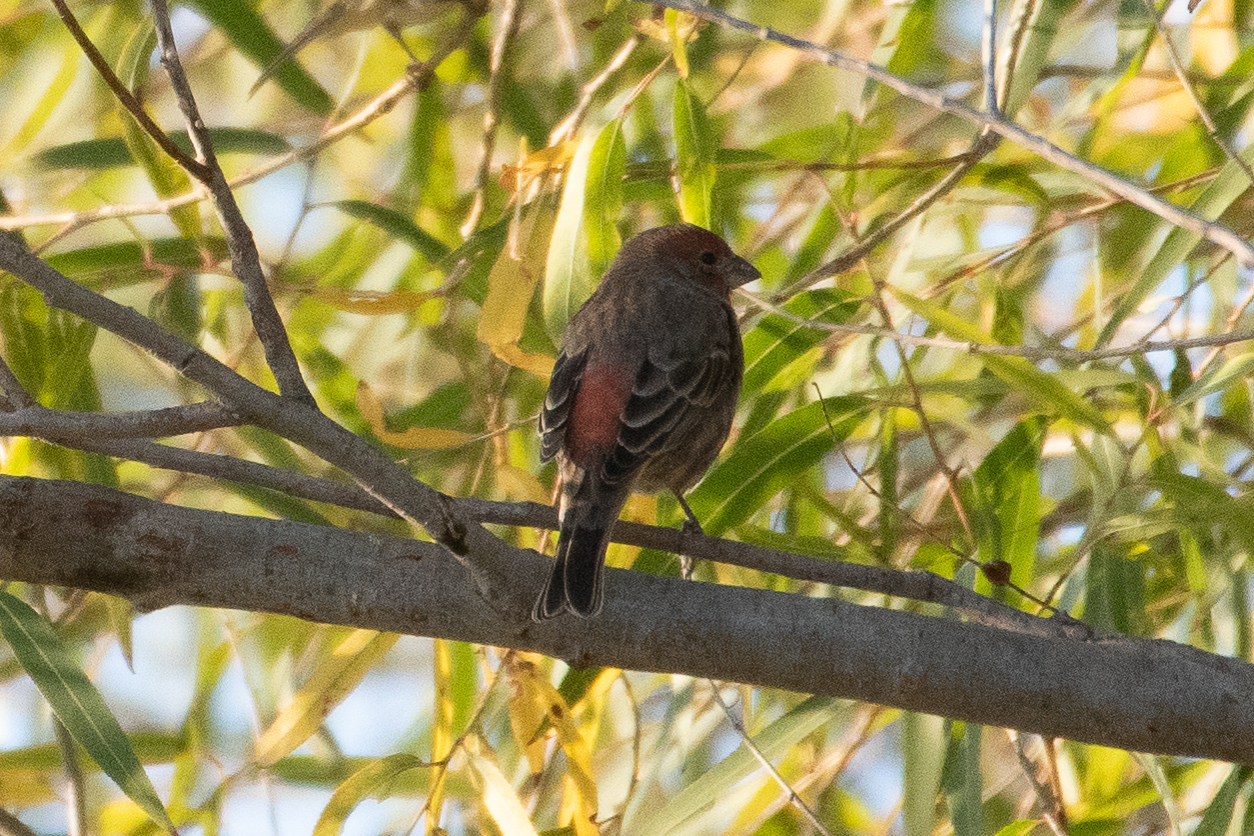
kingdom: Animalia
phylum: Chordata
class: Aves
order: Passeriformes
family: Fringillidae
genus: Haemorhous
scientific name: Haemorhous mexicanus
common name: House finch
